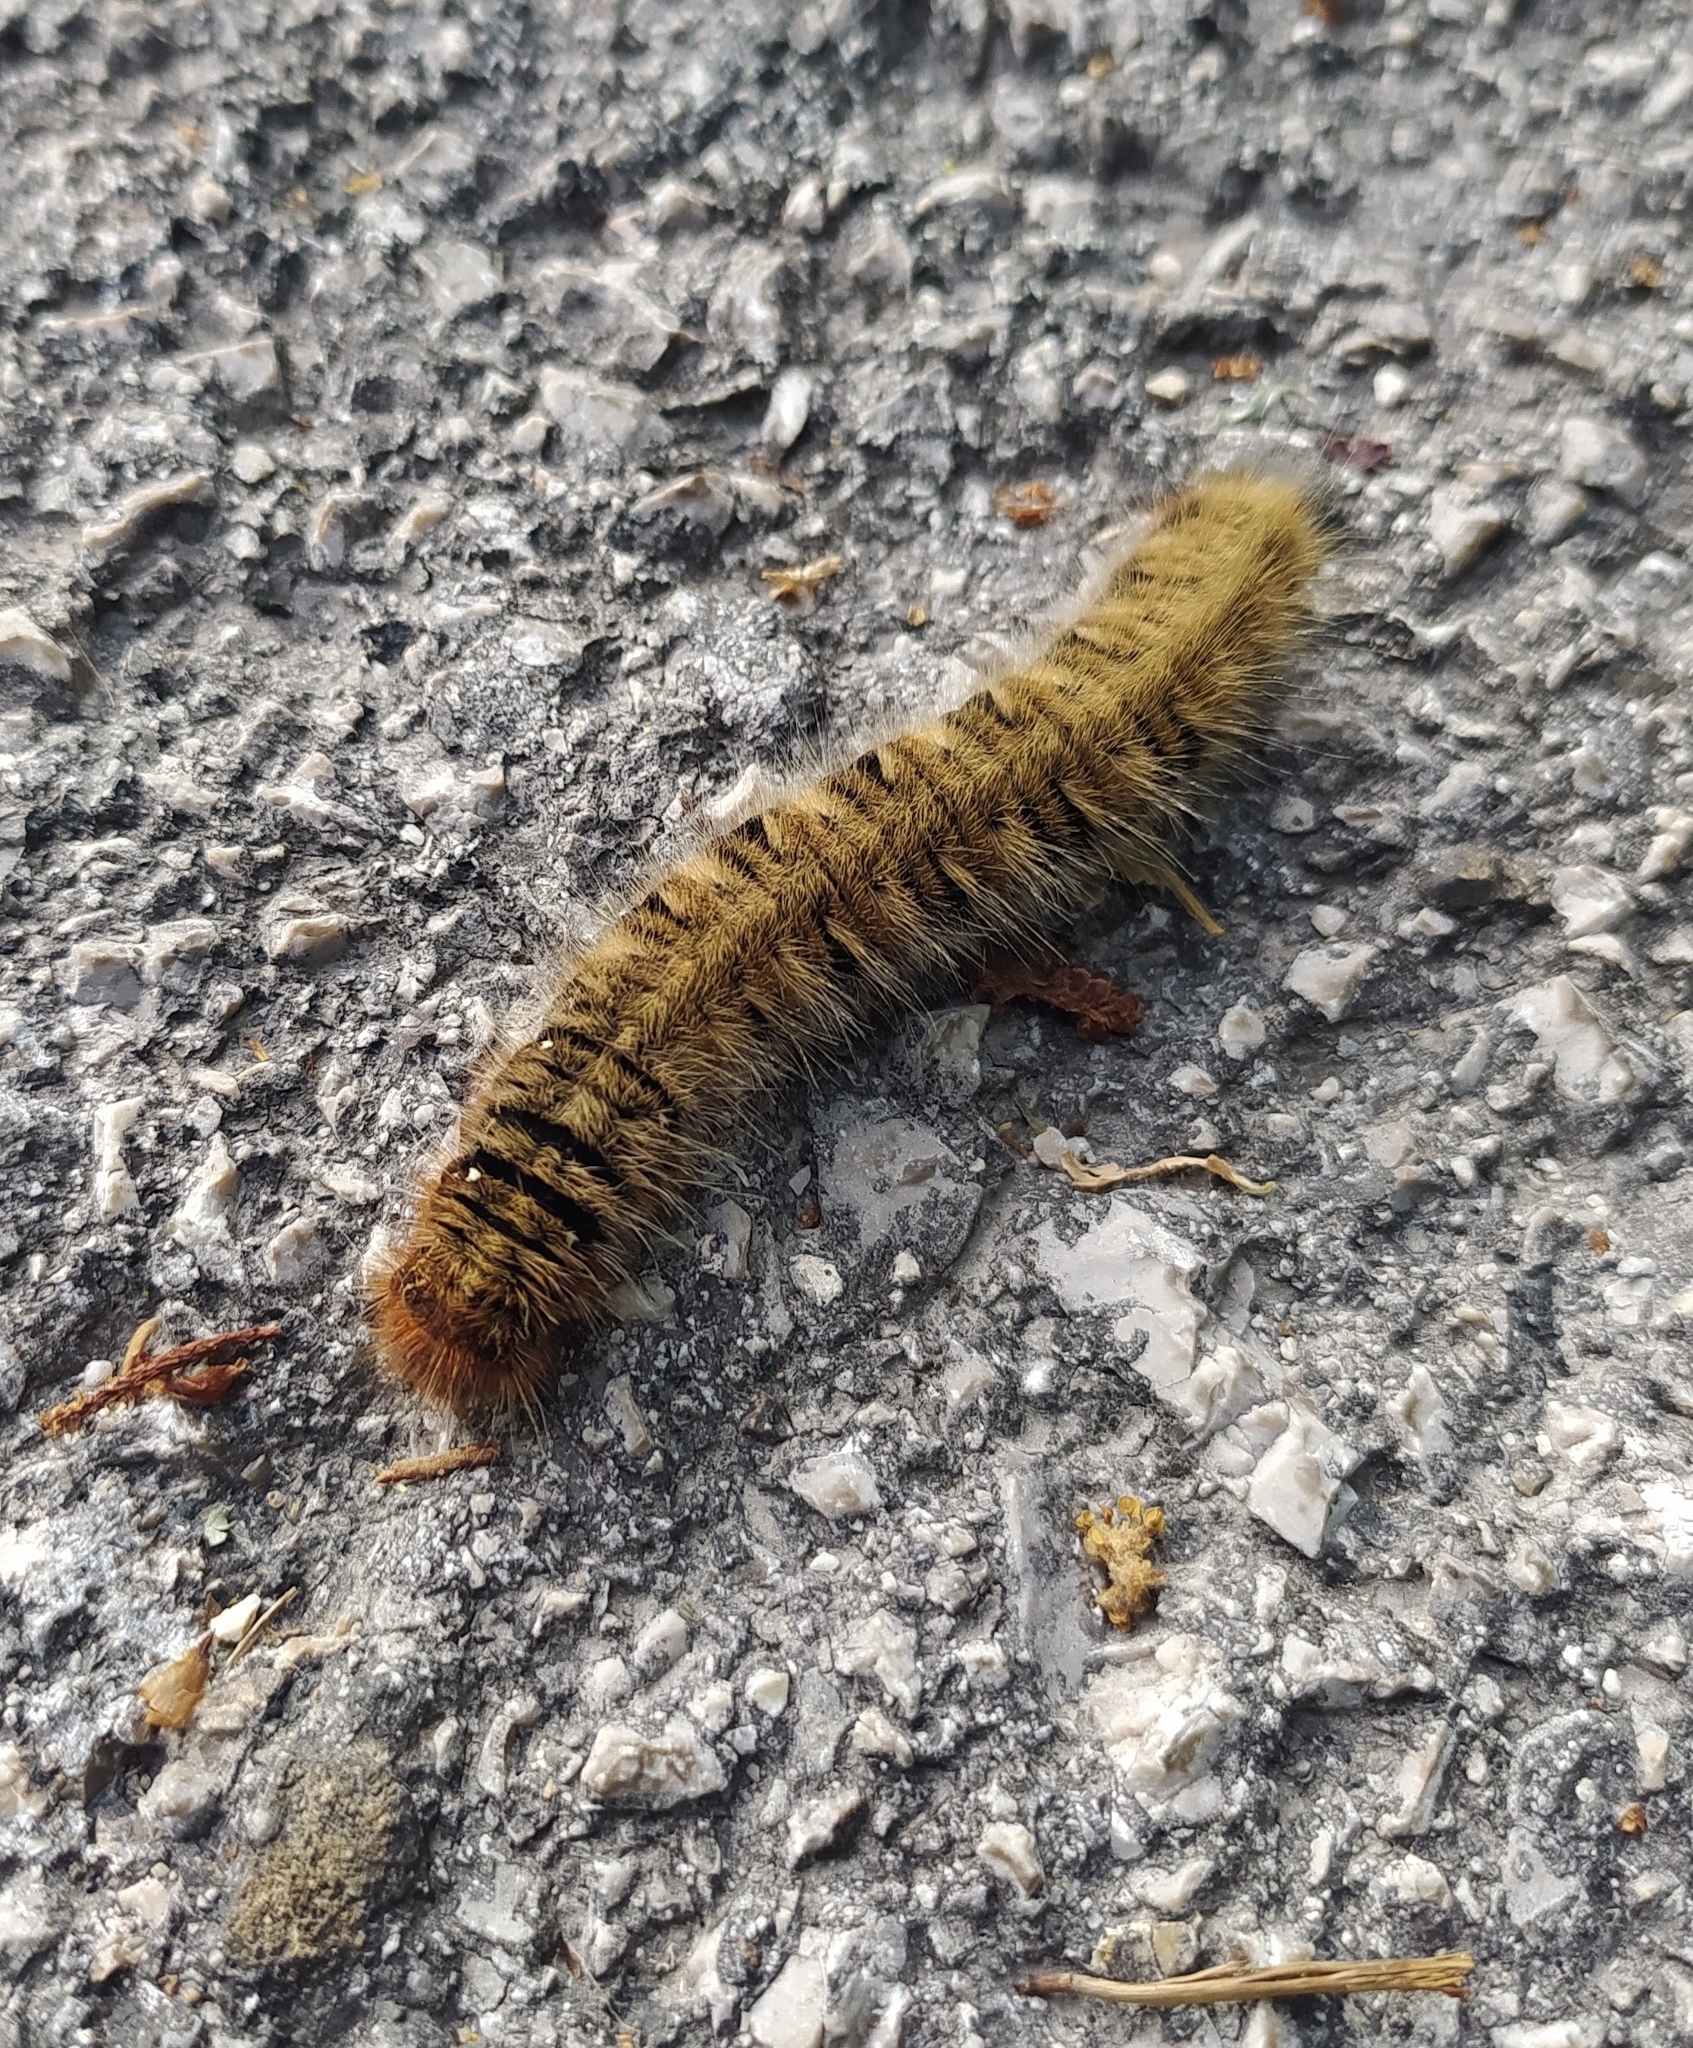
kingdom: Animalia
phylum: Arthropoda
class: Insecta
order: Lepidoptera
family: Lasiocampidae
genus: Lasiocampa
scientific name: Lasiocampa trifolii
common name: Grass eggar
